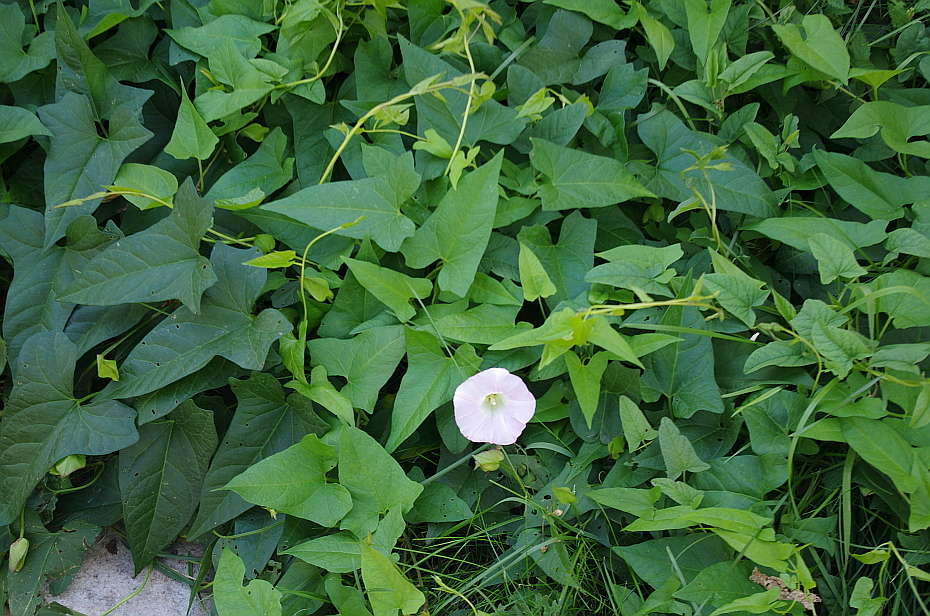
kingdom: Plantae
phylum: Tracheophyta
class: Magnoliopsida
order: Solanales
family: Convolvulaceae
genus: Calystegia
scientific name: Calystegia sepium
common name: Hedge bindweed
